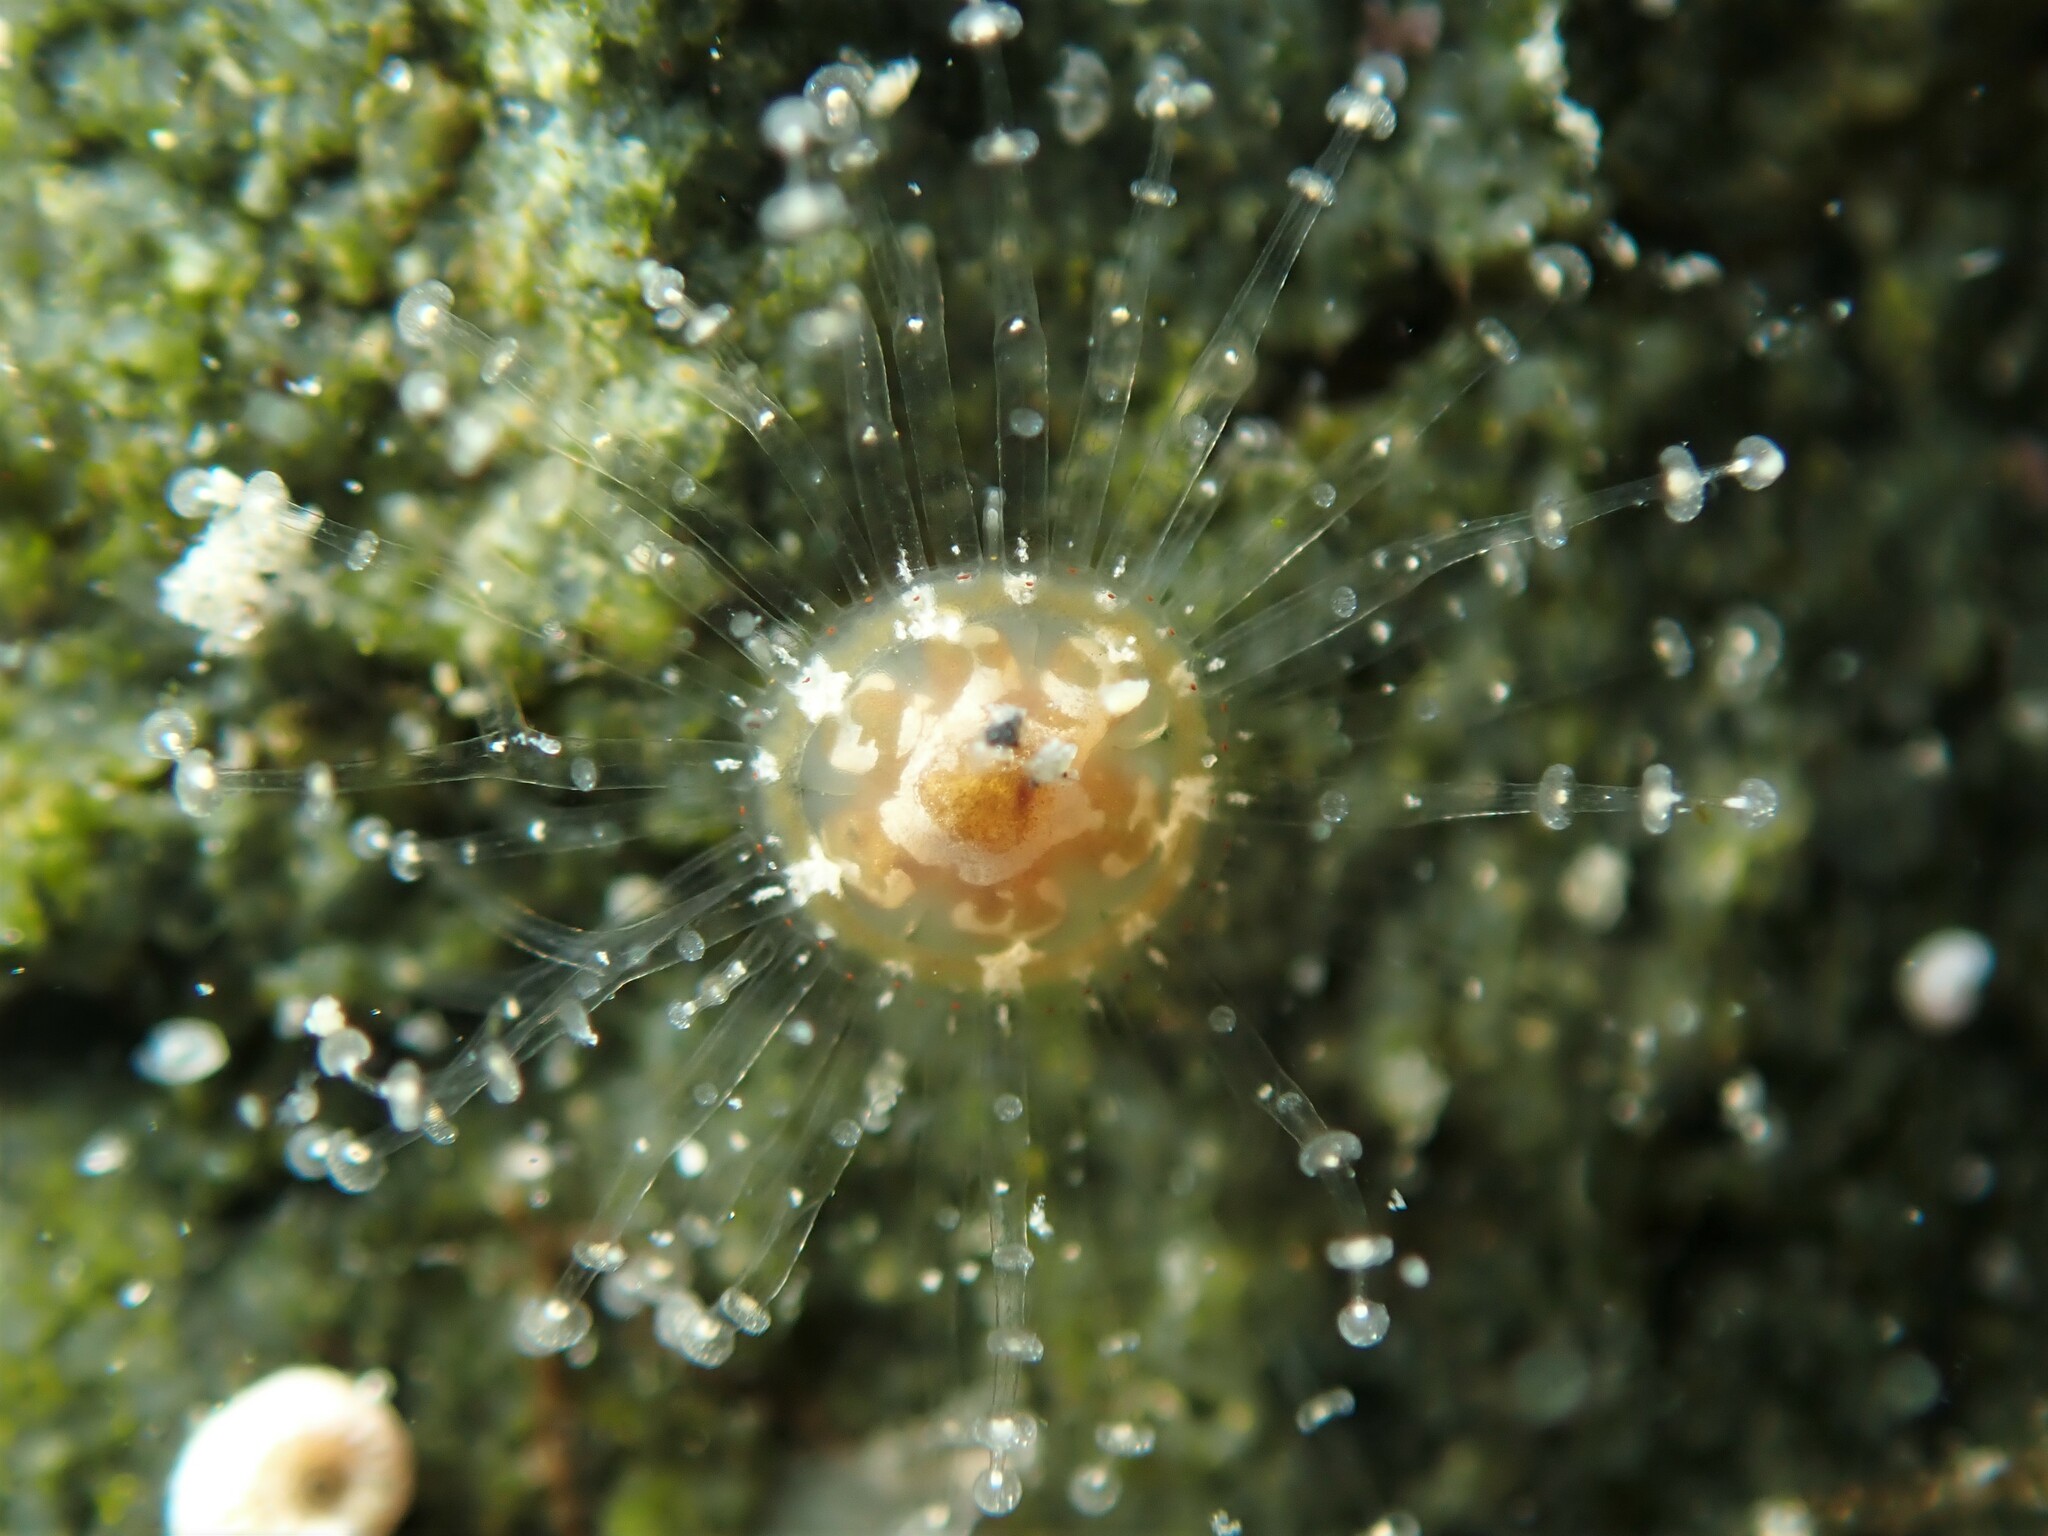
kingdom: Animalia
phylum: Cnidaria
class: Hydrozoa
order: Anthoathecata
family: Cladonematidae
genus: Staurocladia
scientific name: Staurocladia wellingtoni
